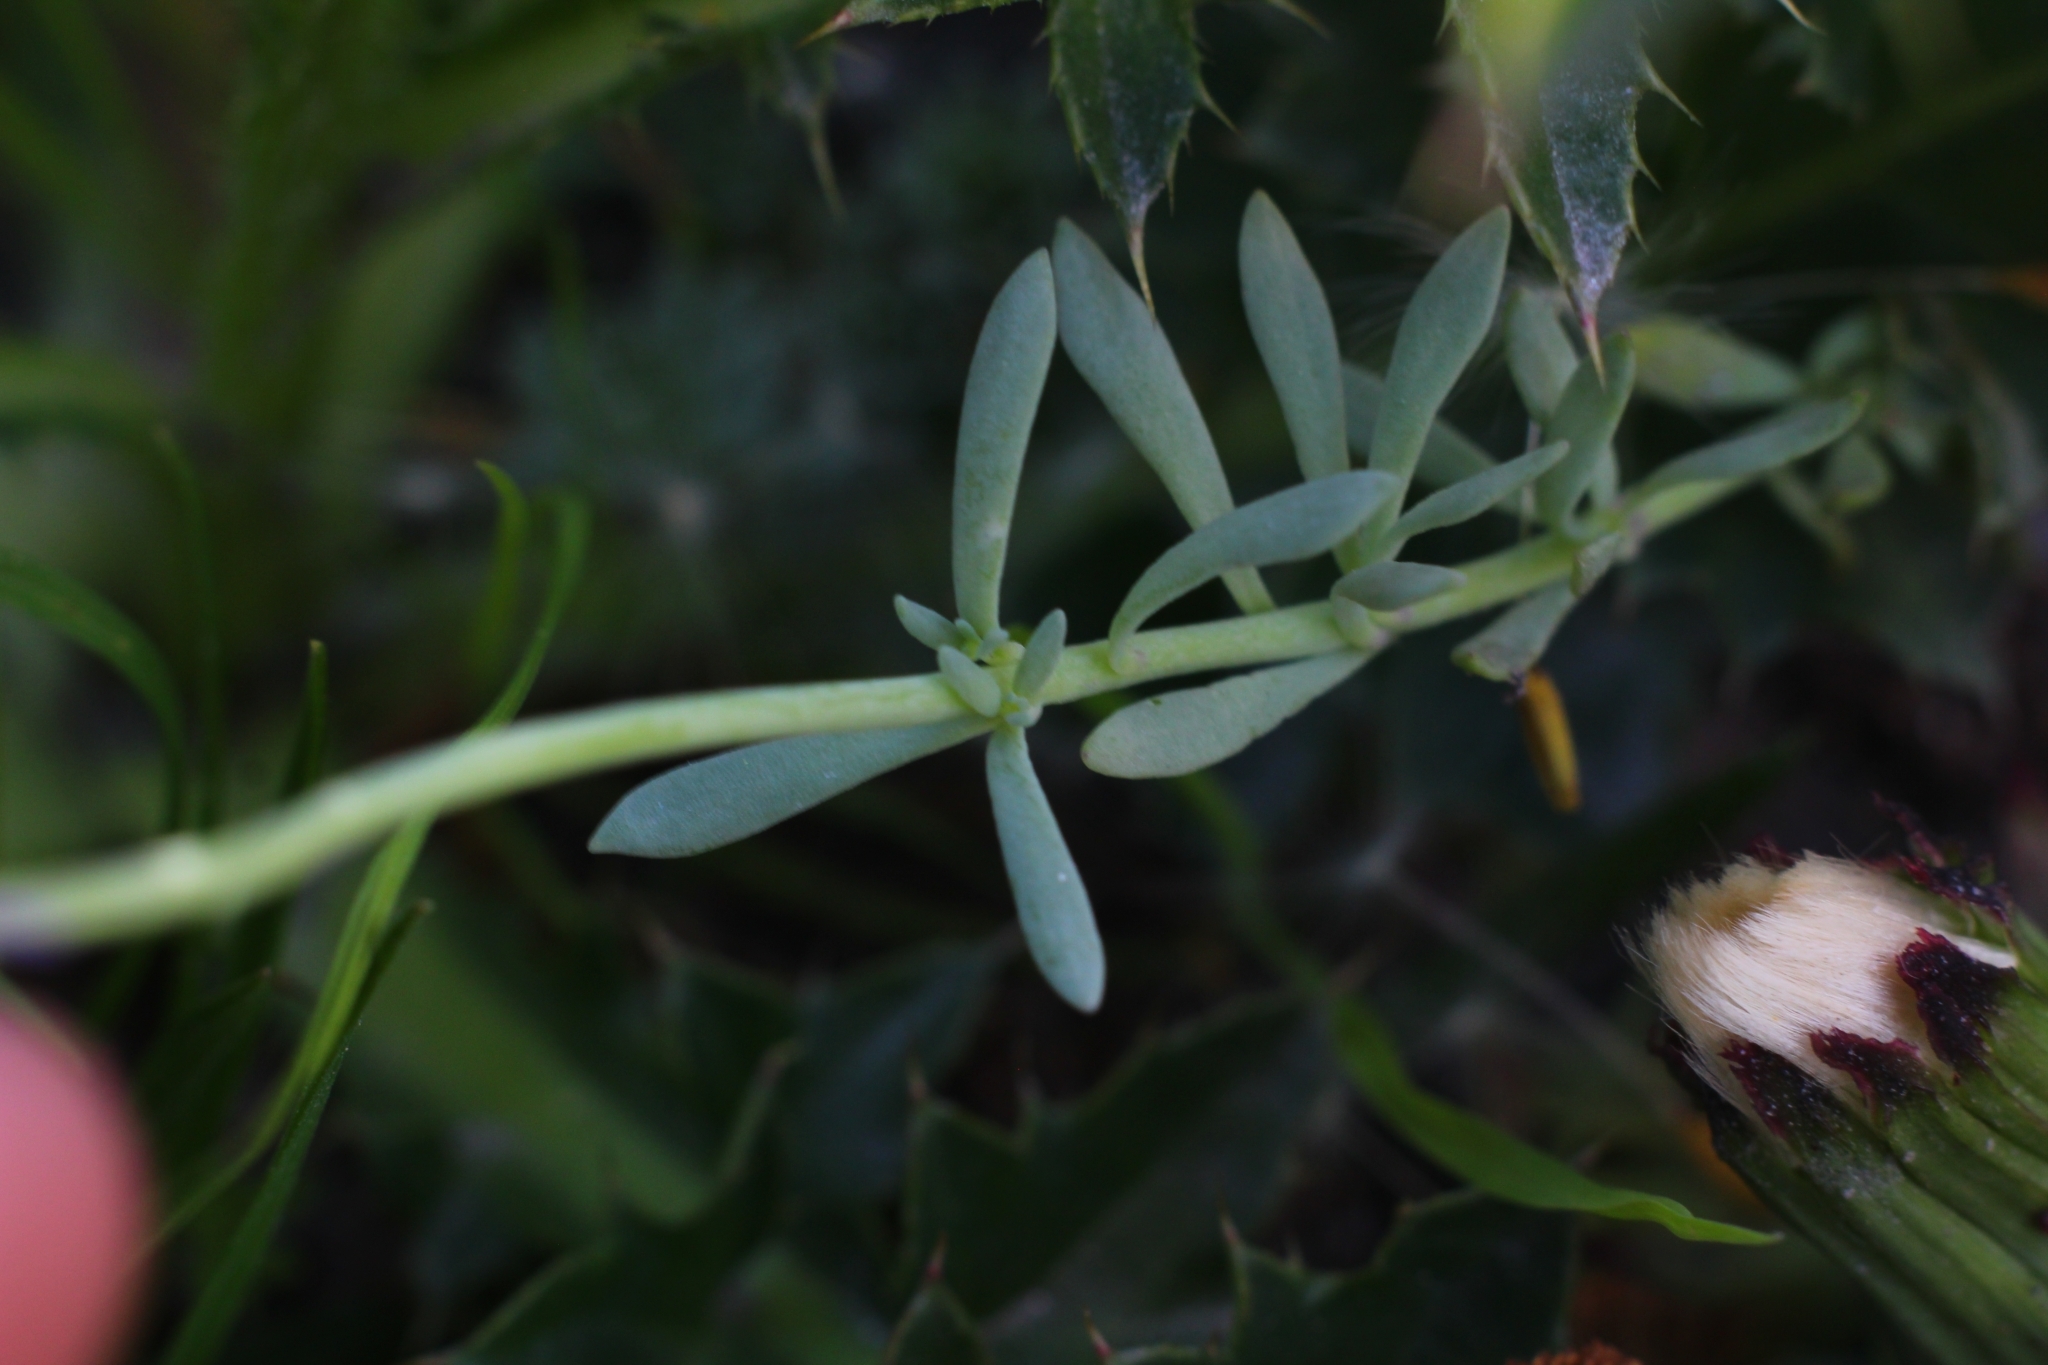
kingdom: Plantae
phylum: Tracheophyta
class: Magnoliopsida
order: Lamiales
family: Plantaginaceae
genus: Linaria
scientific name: Linaria alpina
